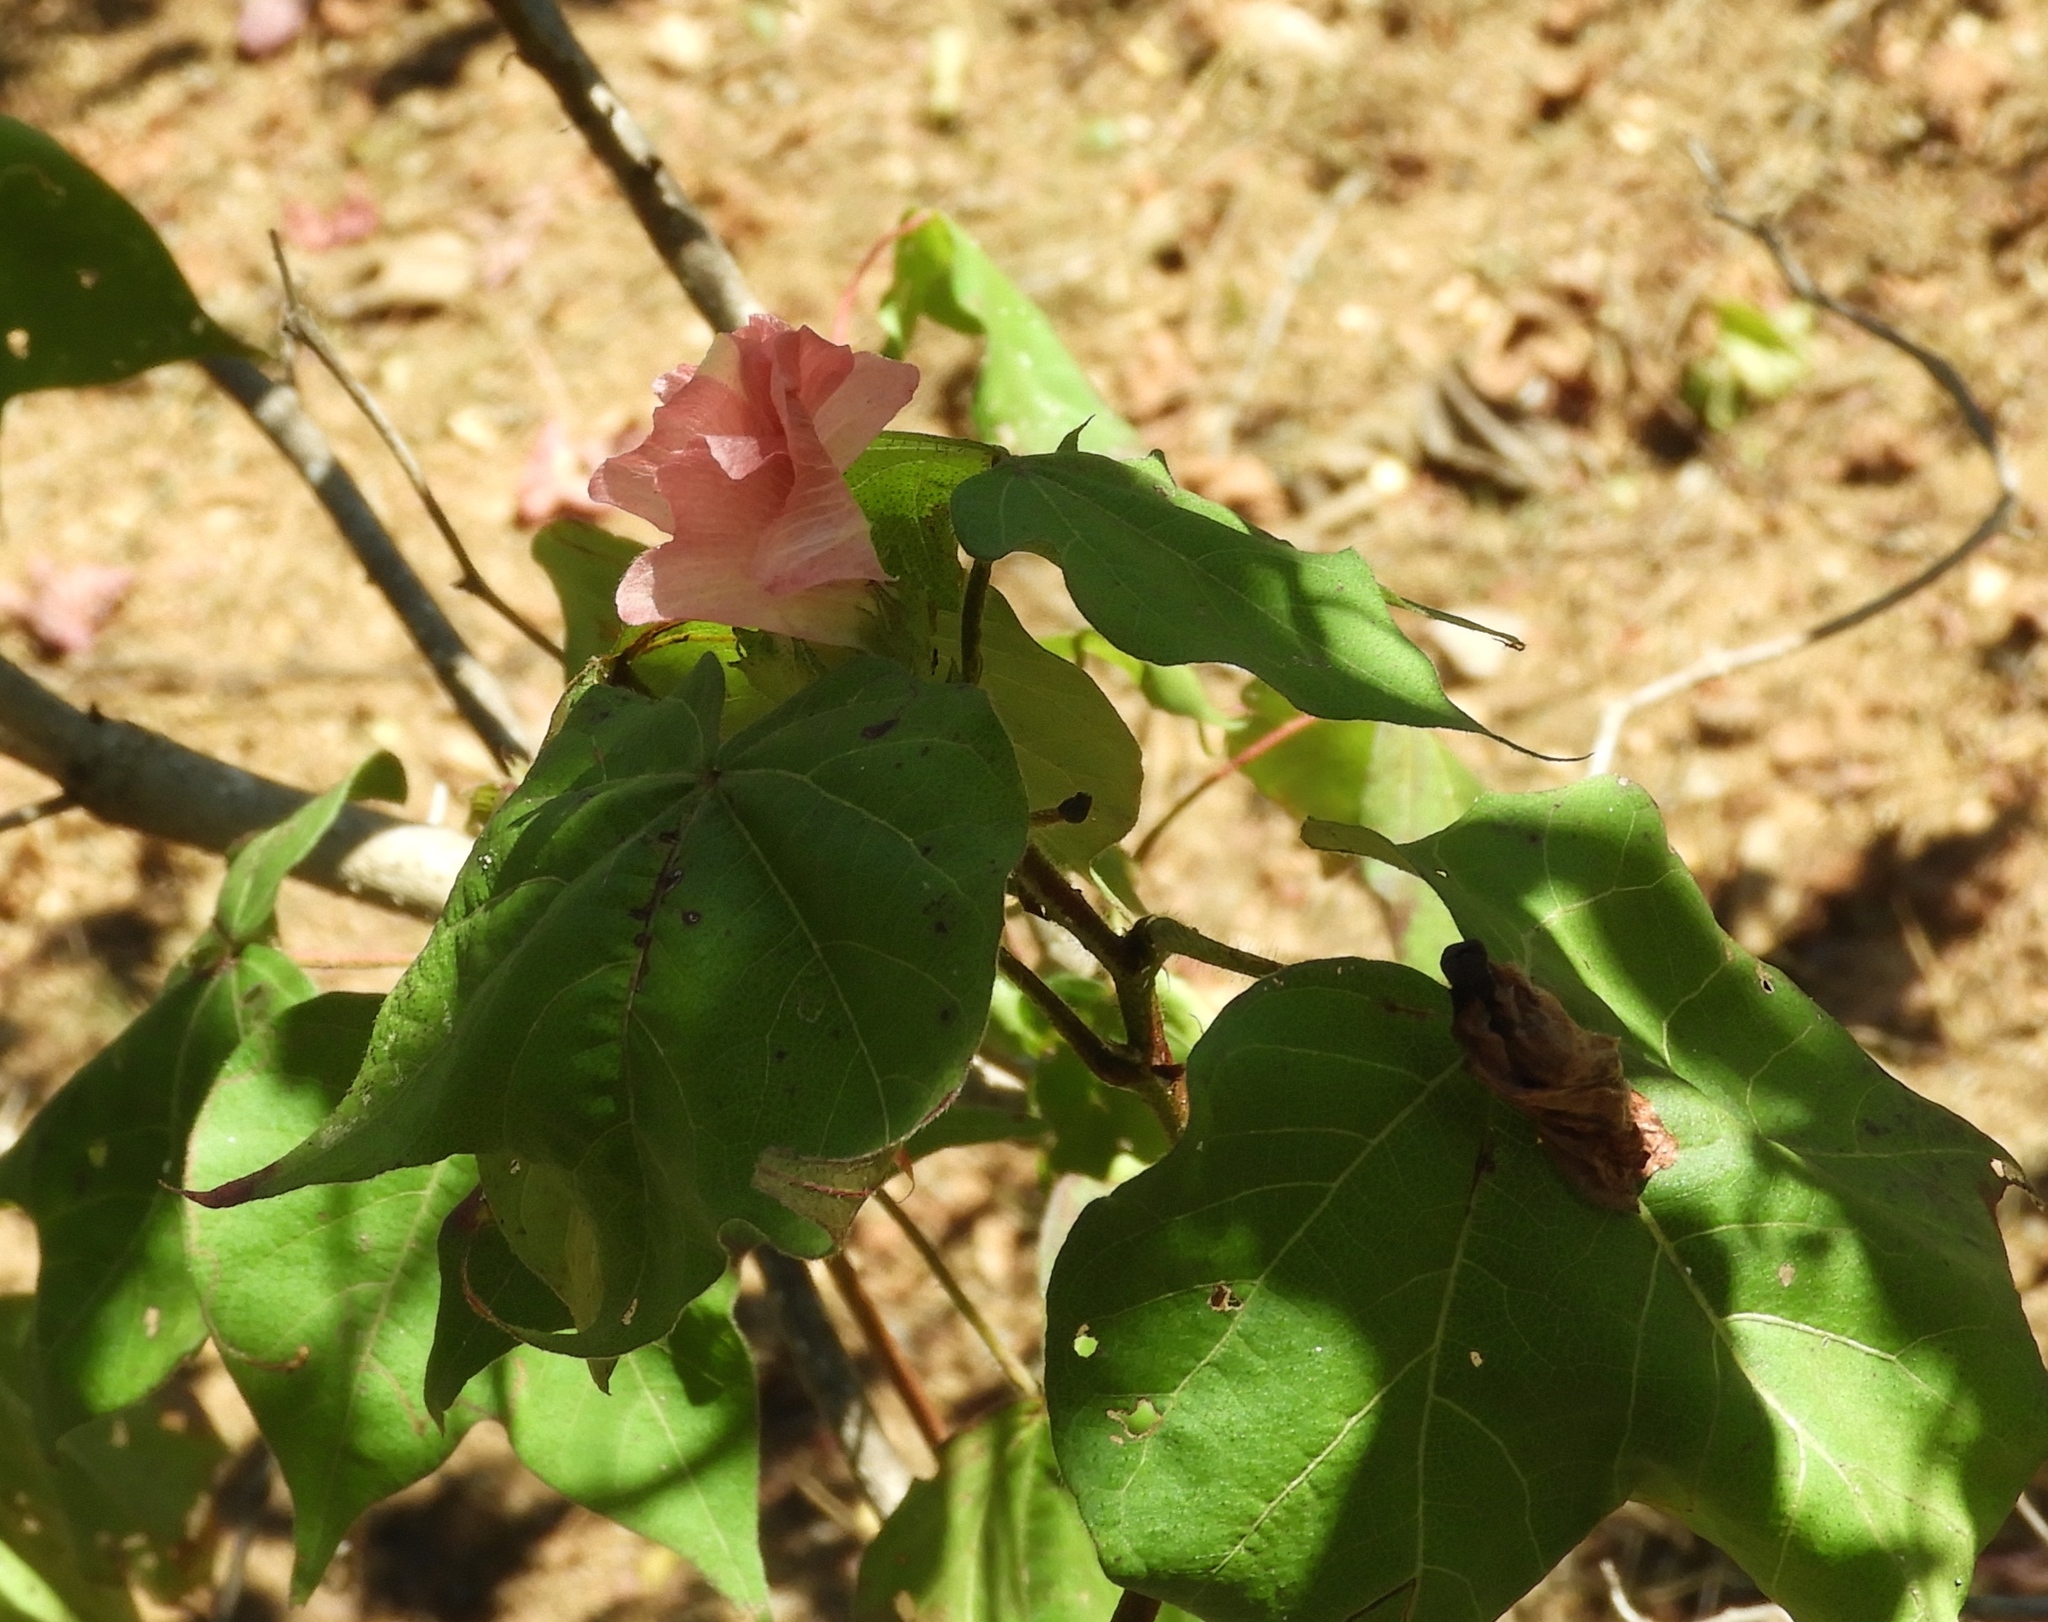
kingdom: Plantae
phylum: Tracheophyta
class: Magnoliopsida
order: Malvales
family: Malvaceae
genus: Gossypium
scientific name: Gossypium hirsutum
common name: Cotton
